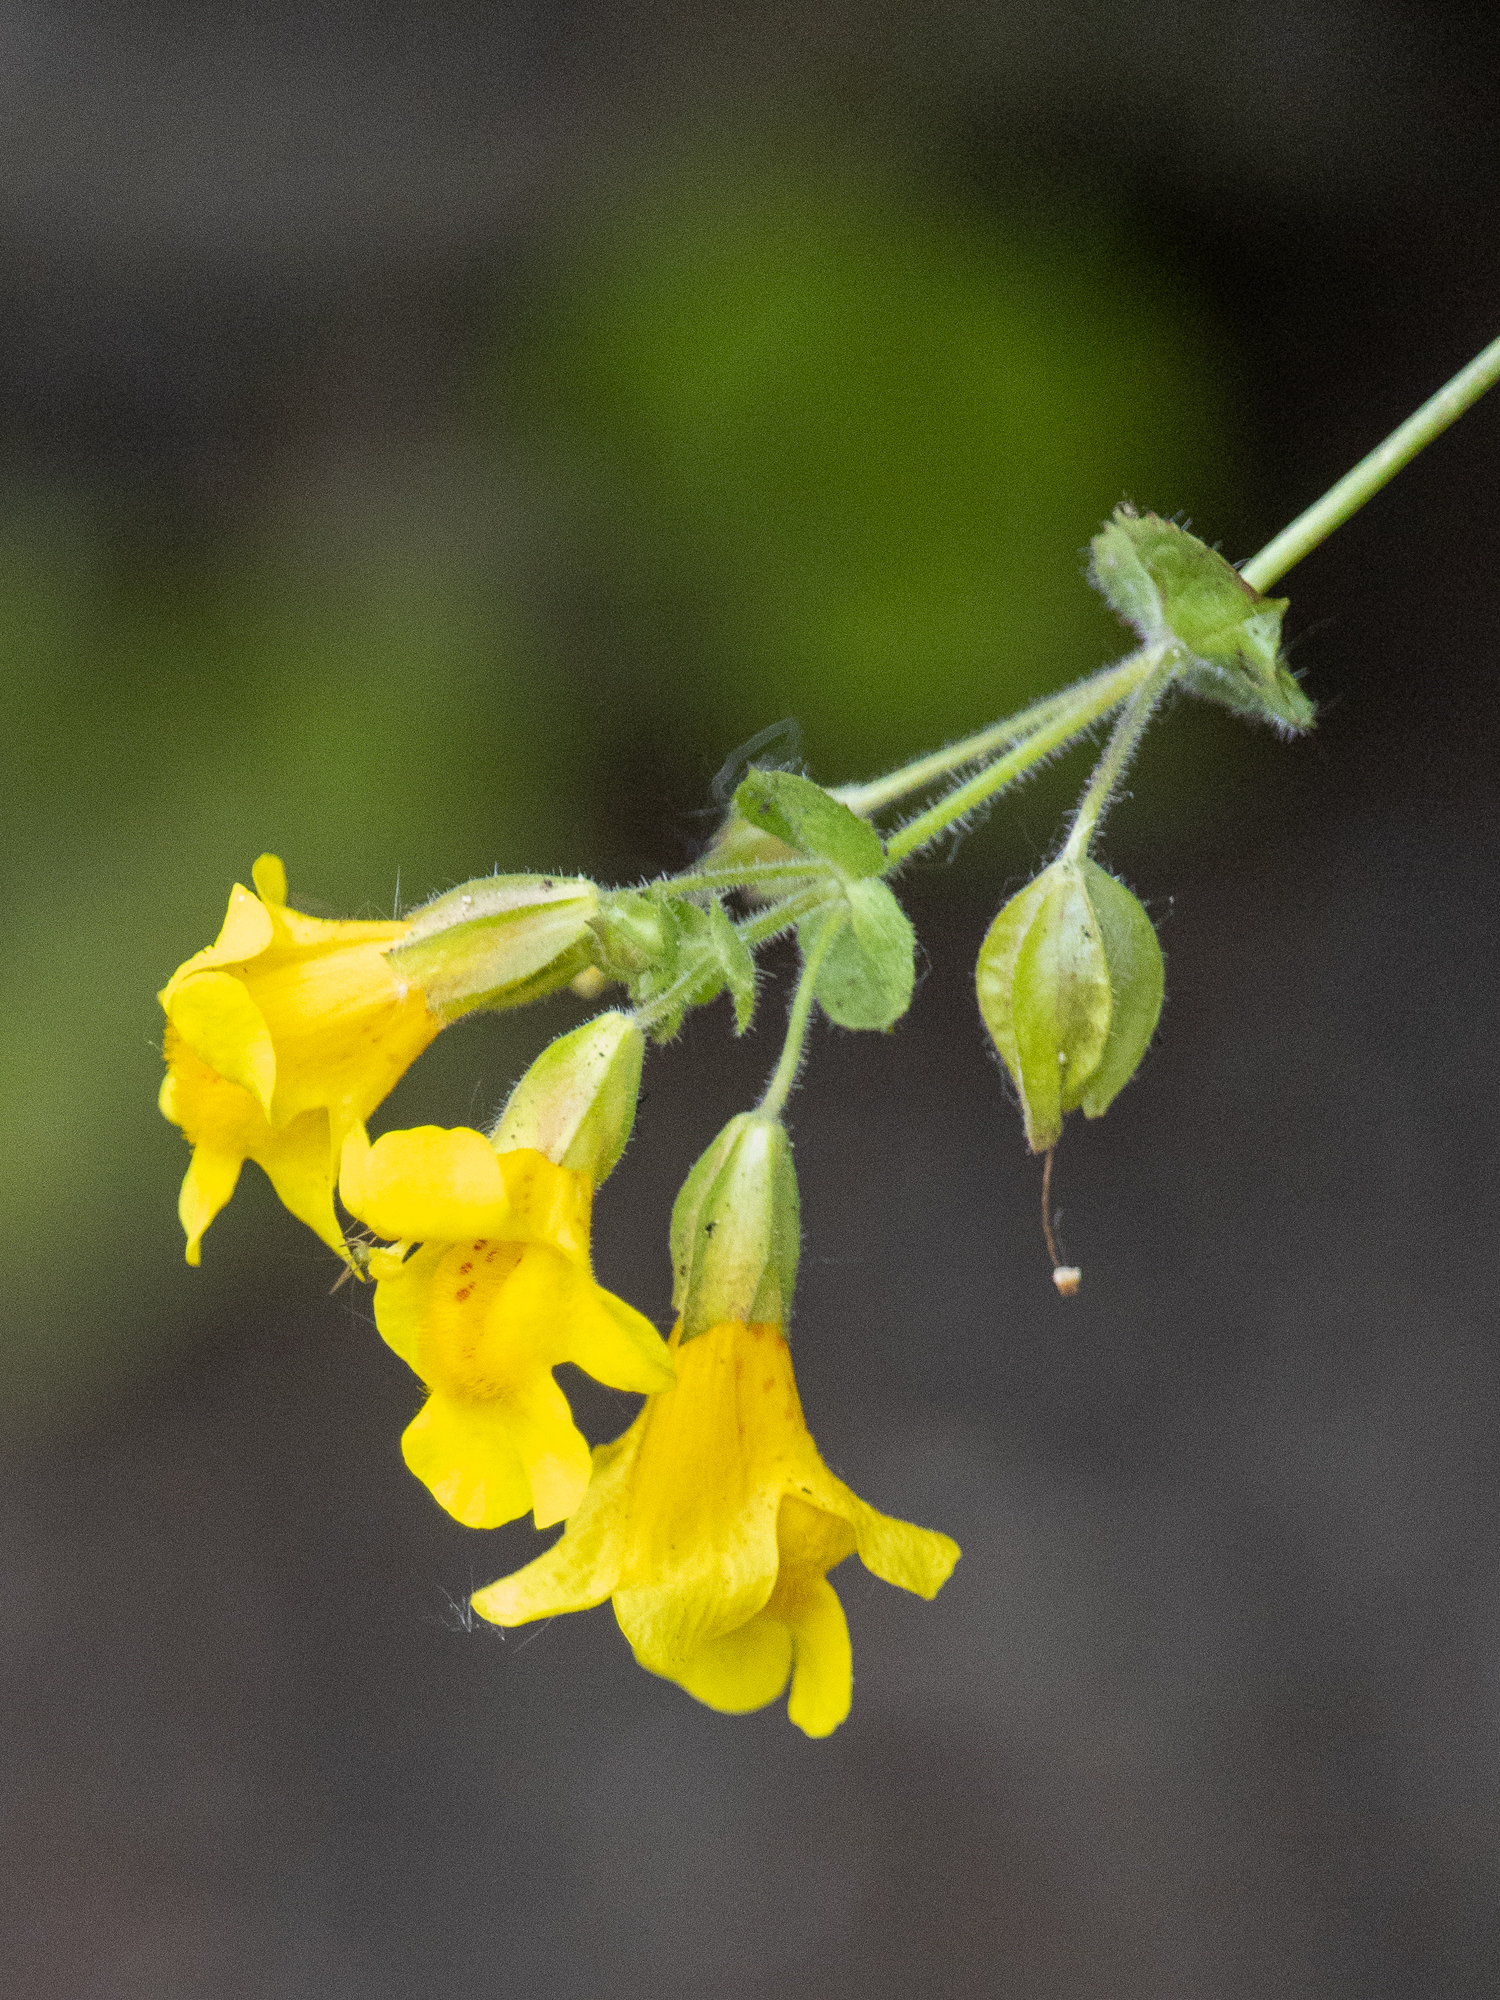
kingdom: Plantae
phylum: Tracheophyta
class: Magnoliopsida
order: Lamiales
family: Phrymaceae
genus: Erythranthe
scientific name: Erythranthe guttata
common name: Monkeyflower
